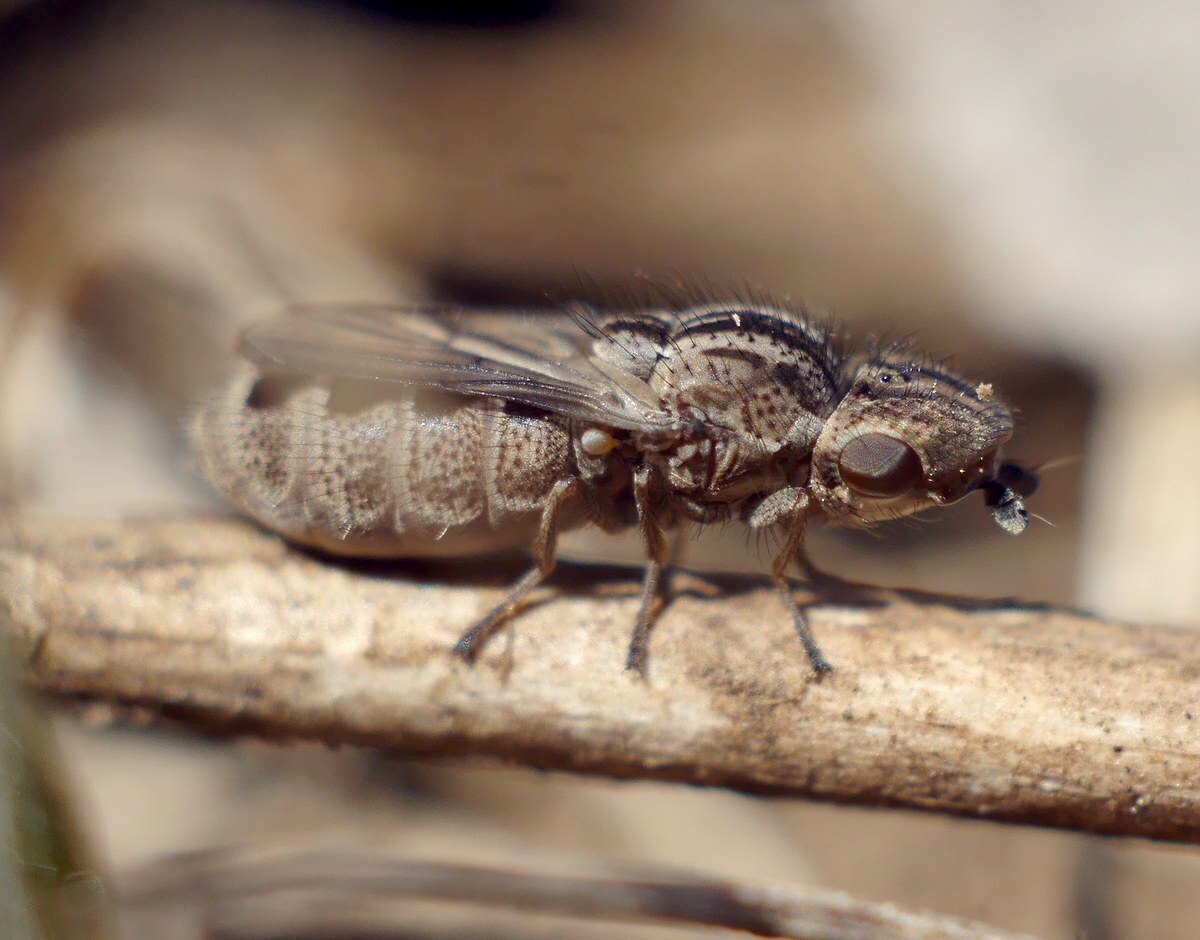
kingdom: Animalia
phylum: Arthropoda
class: Insecta
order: Diptera
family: Chloropidae
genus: Trichieurina
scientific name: Trichieurina pubescens
